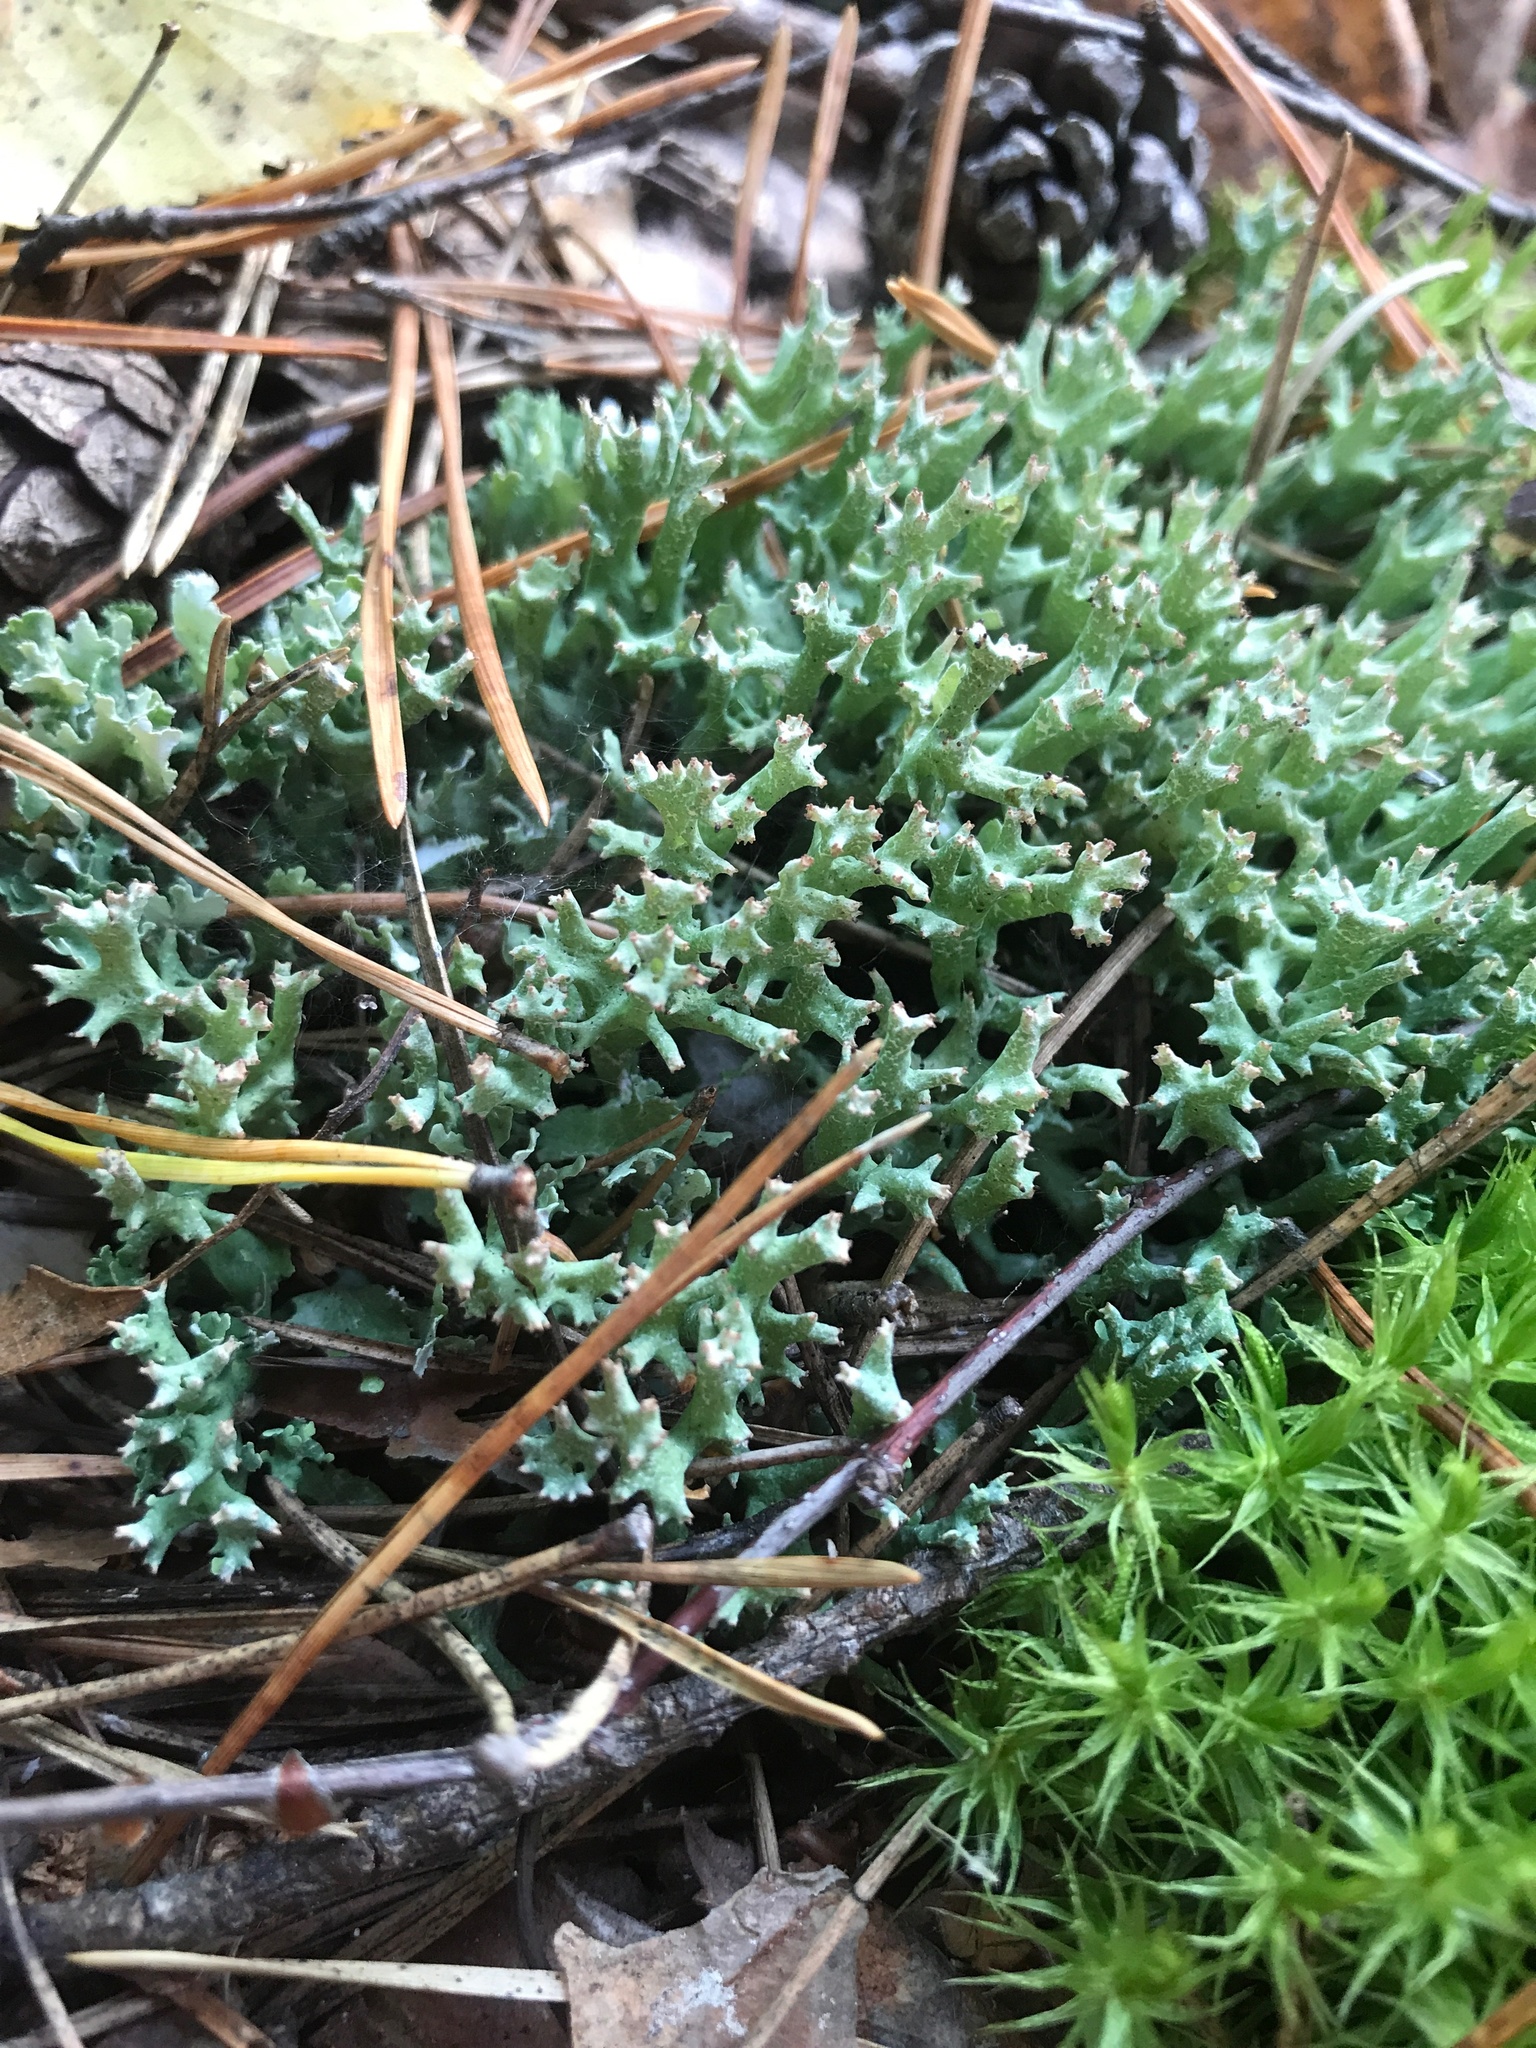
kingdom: Fungi
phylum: Ascomycota
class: Lecanoromycetes
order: Lecanorales
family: Cladoniaceae
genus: Cladonia
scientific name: Cladonia turgida
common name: Crazy scale lichen
